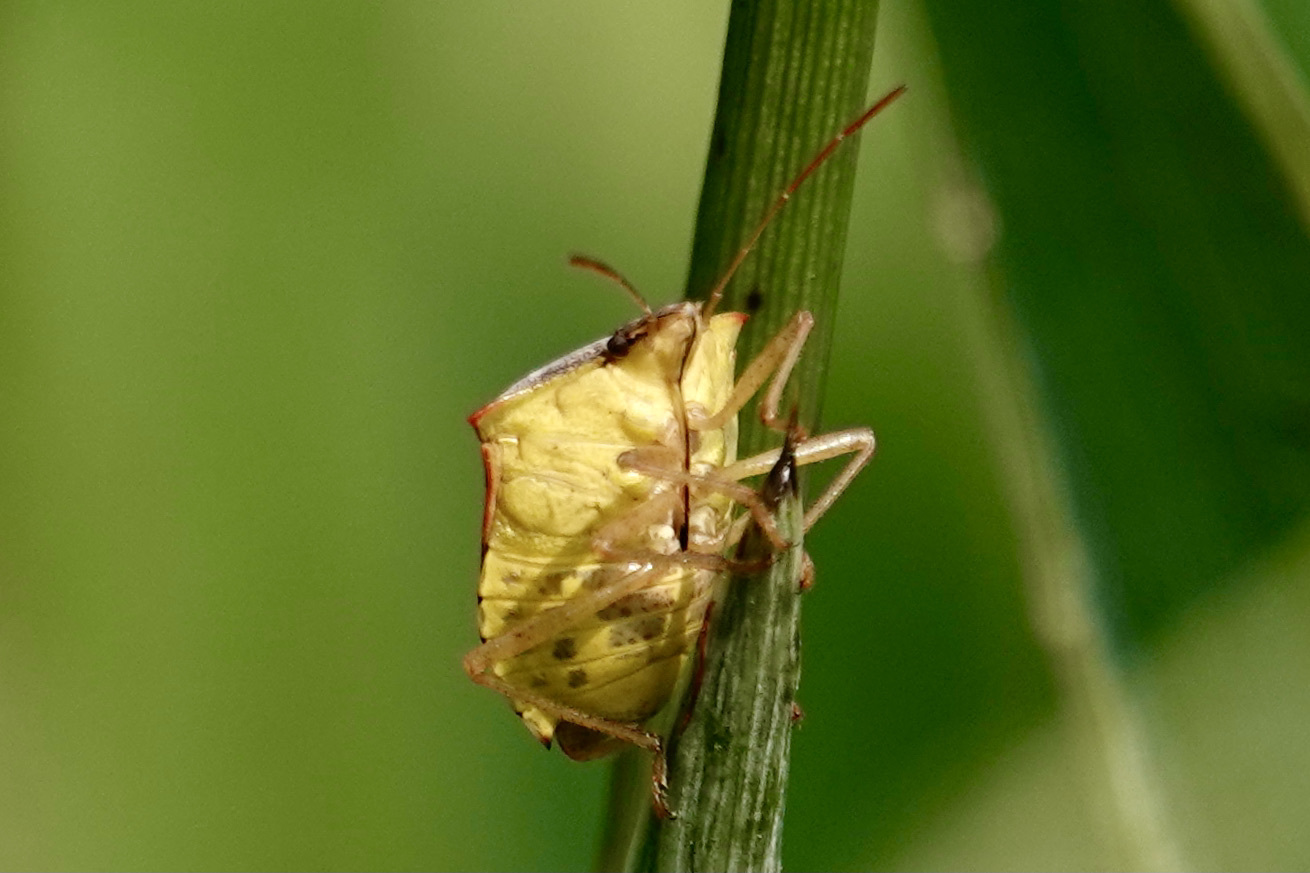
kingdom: Animalia
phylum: Arthropoda
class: Insecta
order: Hemiptera
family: Pentatomidae
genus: Euschistus
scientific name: Euschistus servus
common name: Brown stink bug
